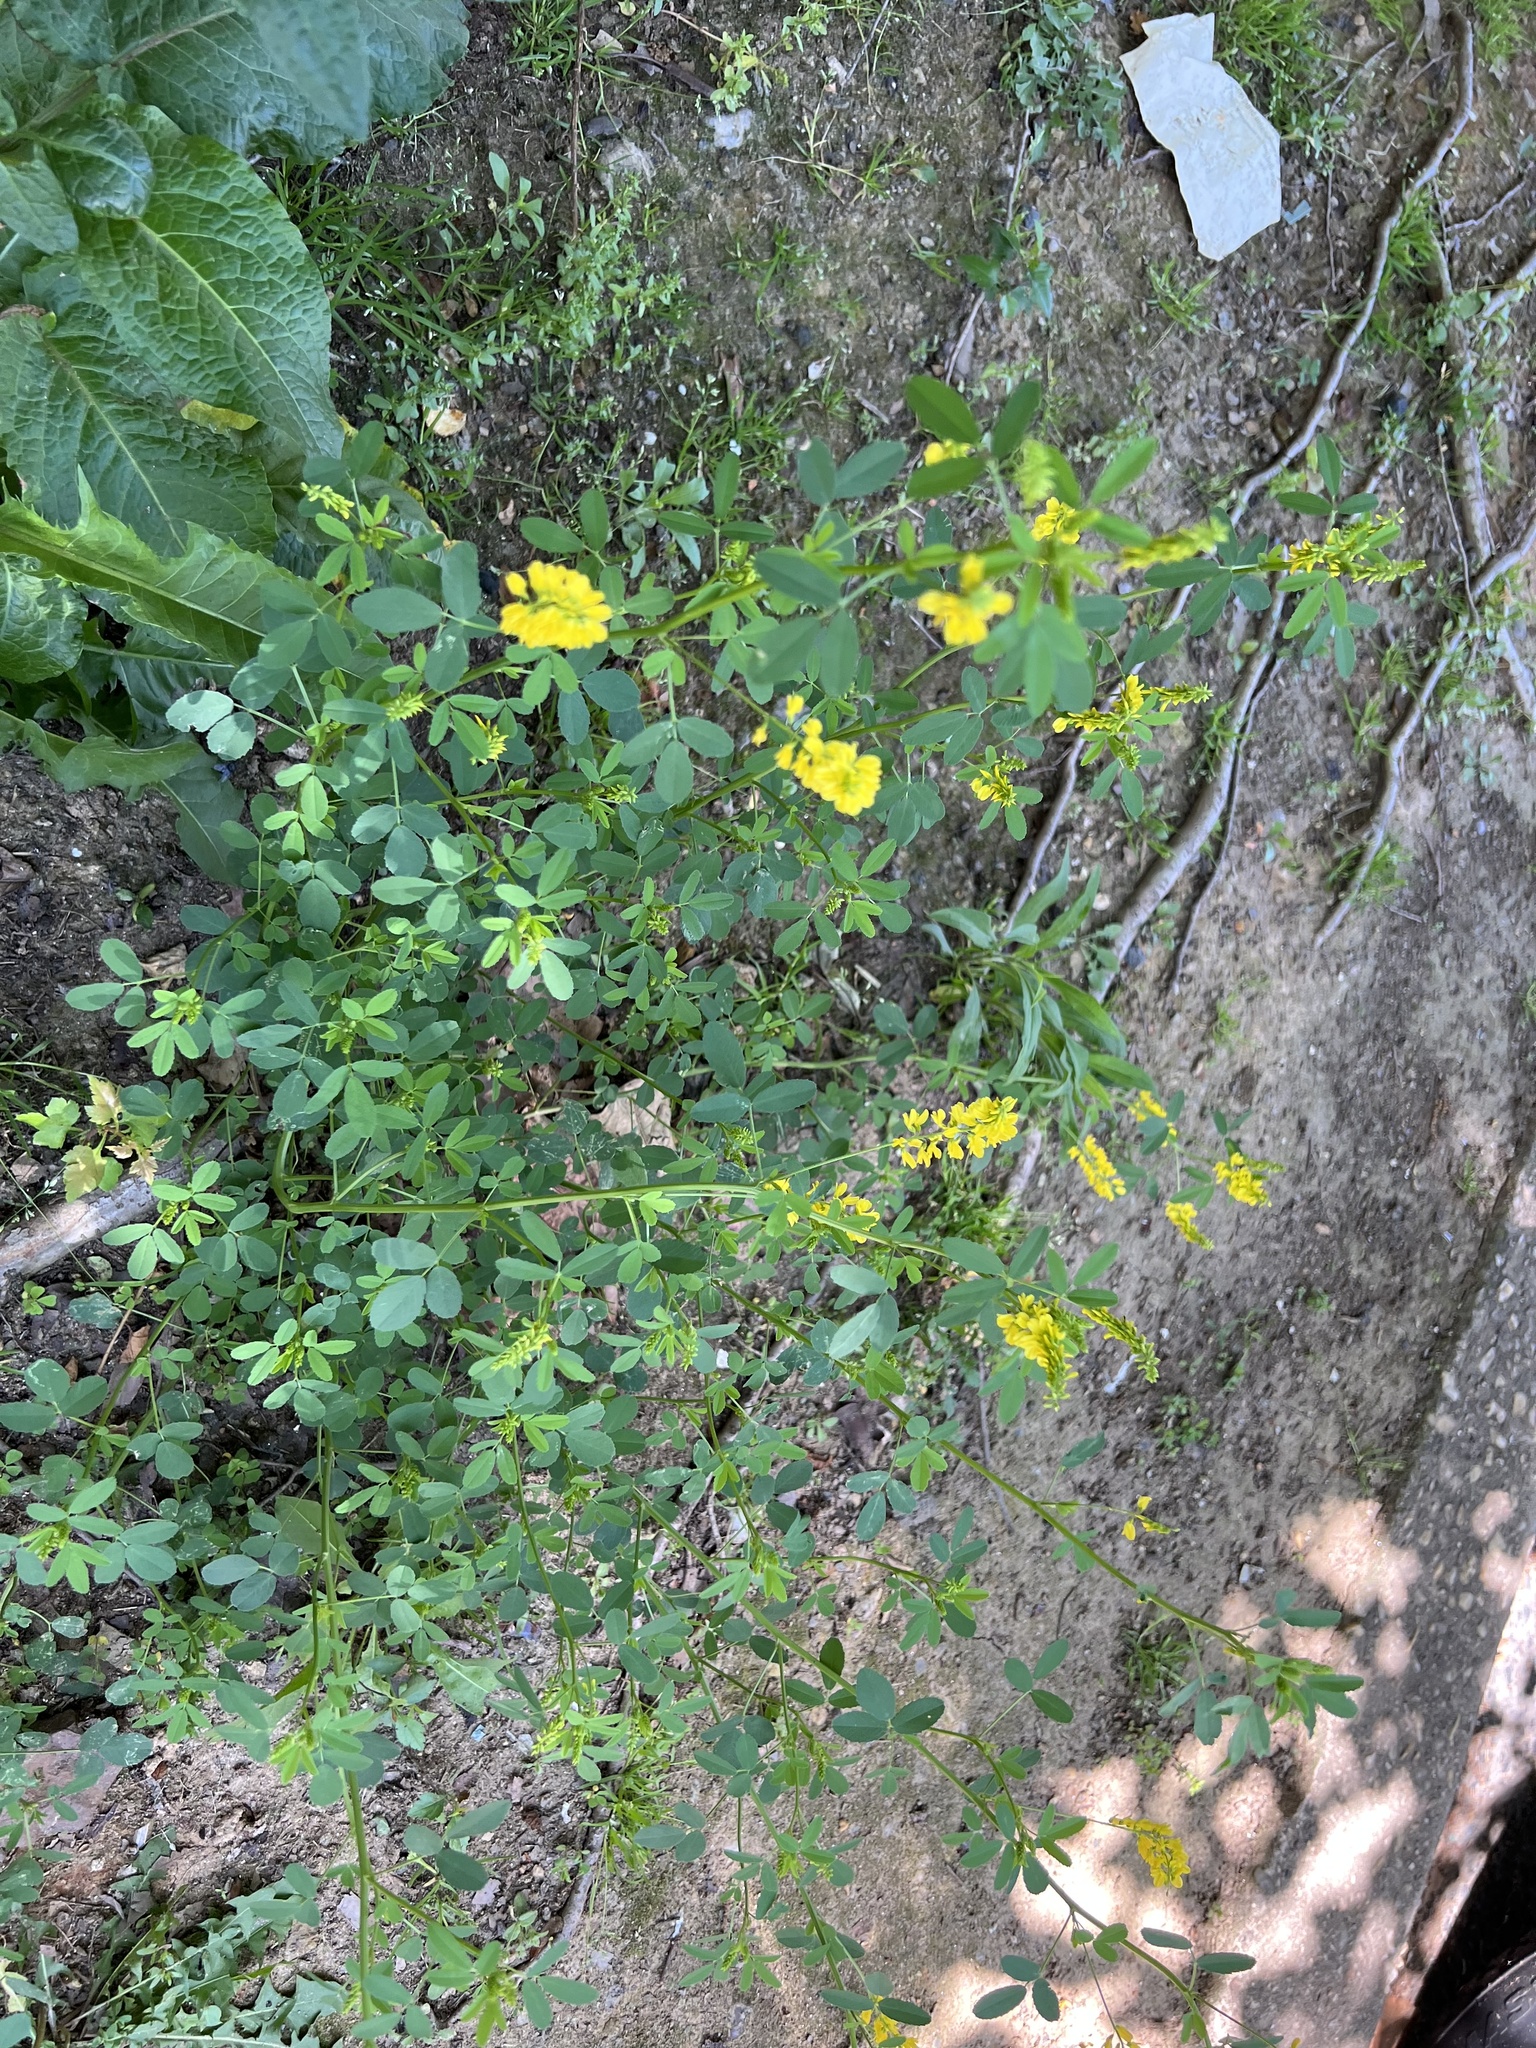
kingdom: Plantae
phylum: Tracheophyta
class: Magnoliopsida
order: Fabales
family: Fabaceae
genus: Melilotus
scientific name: Melilotus officinalis
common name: Sweetclover
